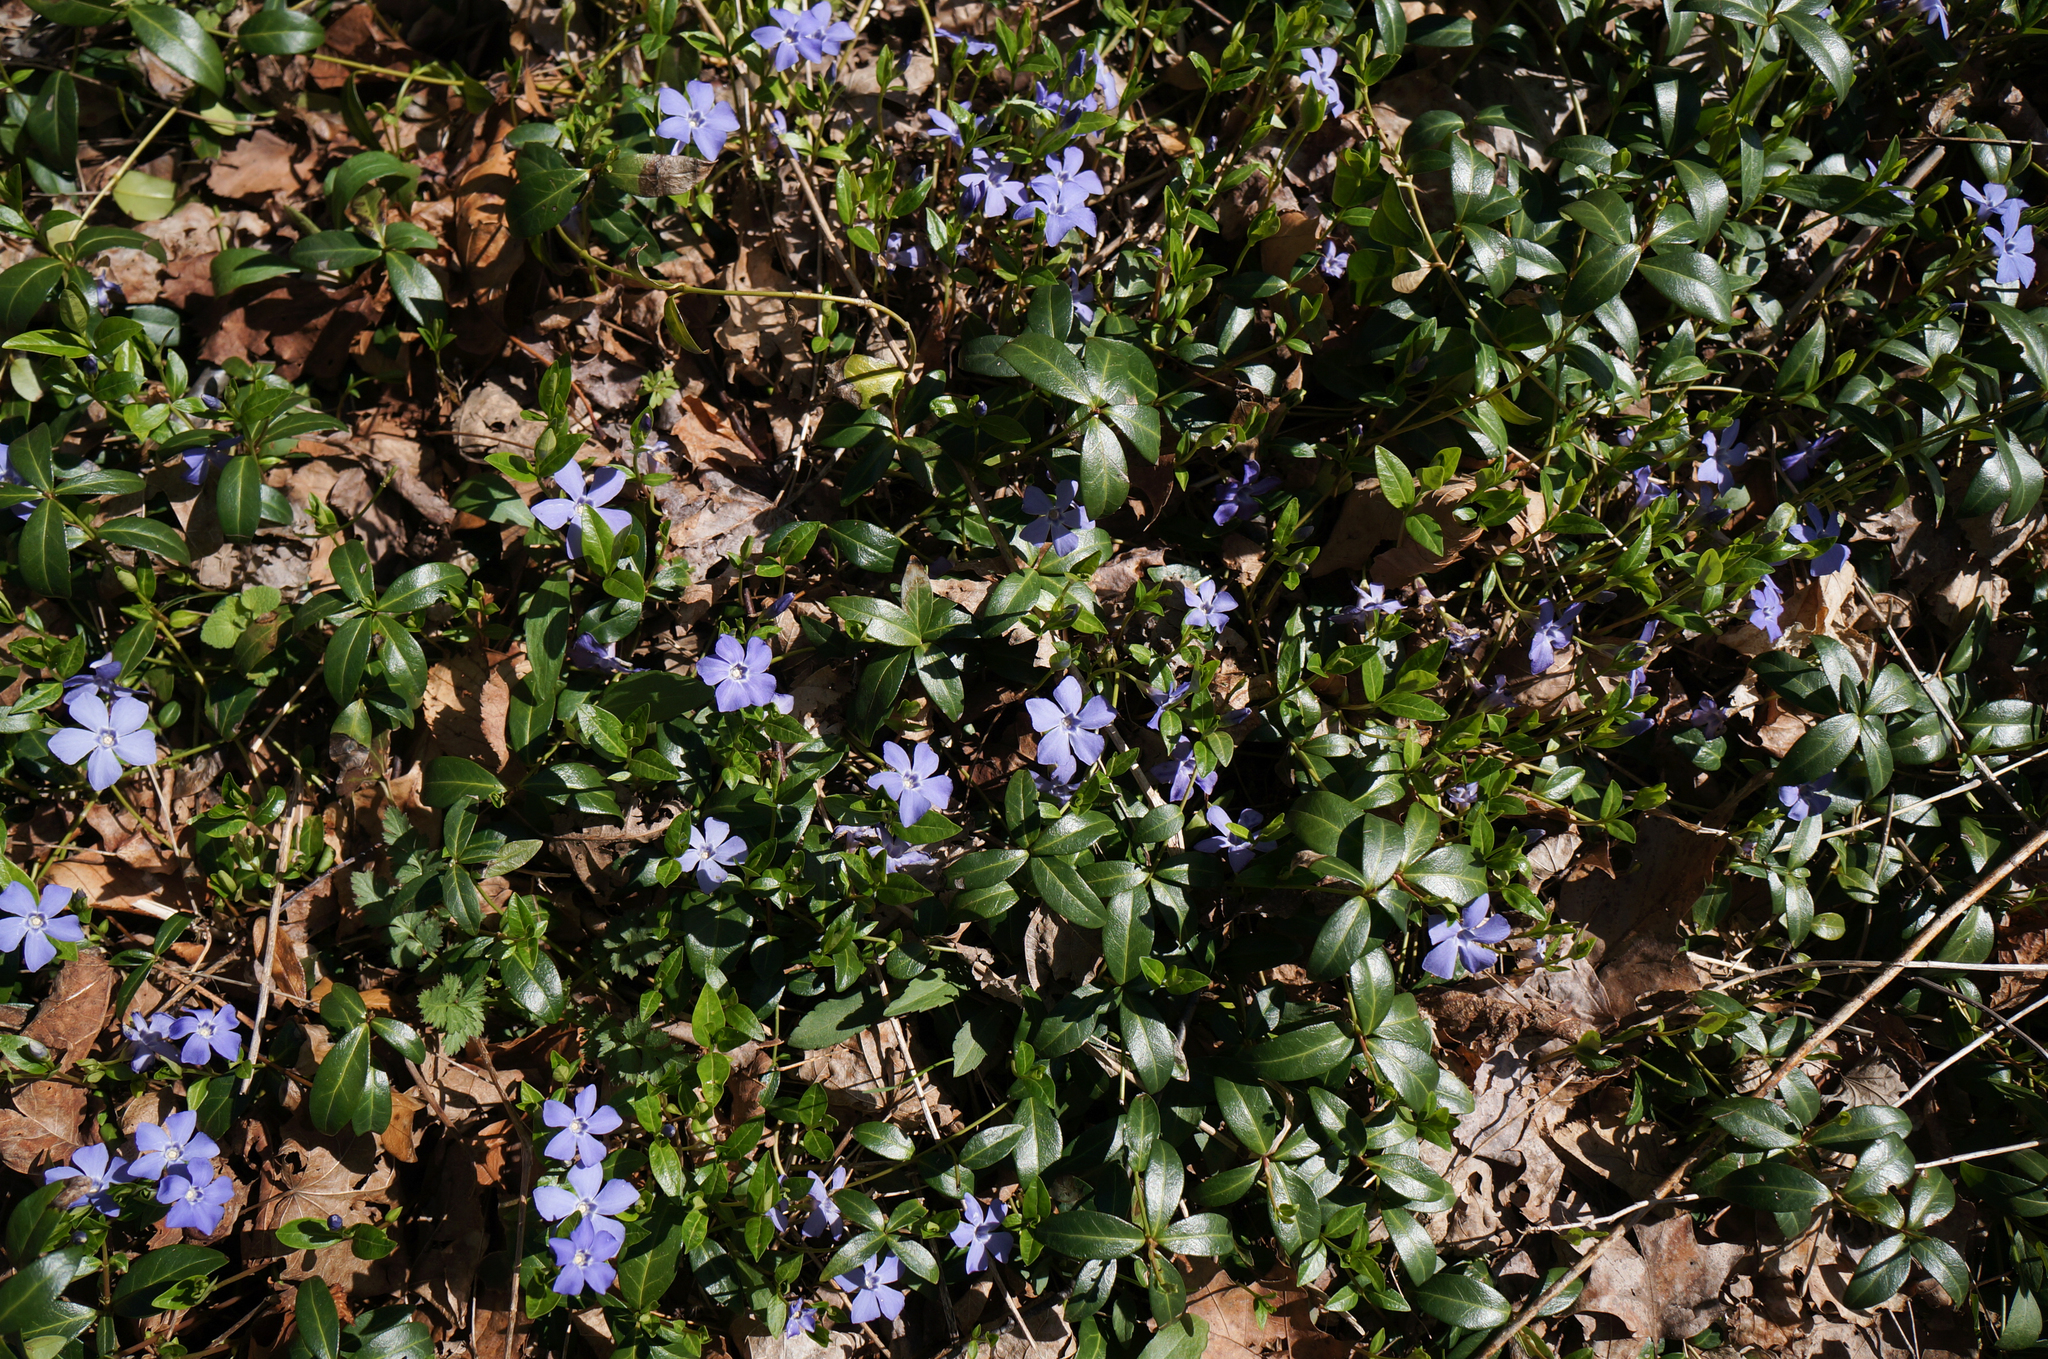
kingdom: Plantae
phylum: Tracheophyta
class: Magnoliopsida
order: Gentianales
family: Apocynaceae
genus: Vinca
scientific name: Vinca minor
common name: Lesser periwinkle
